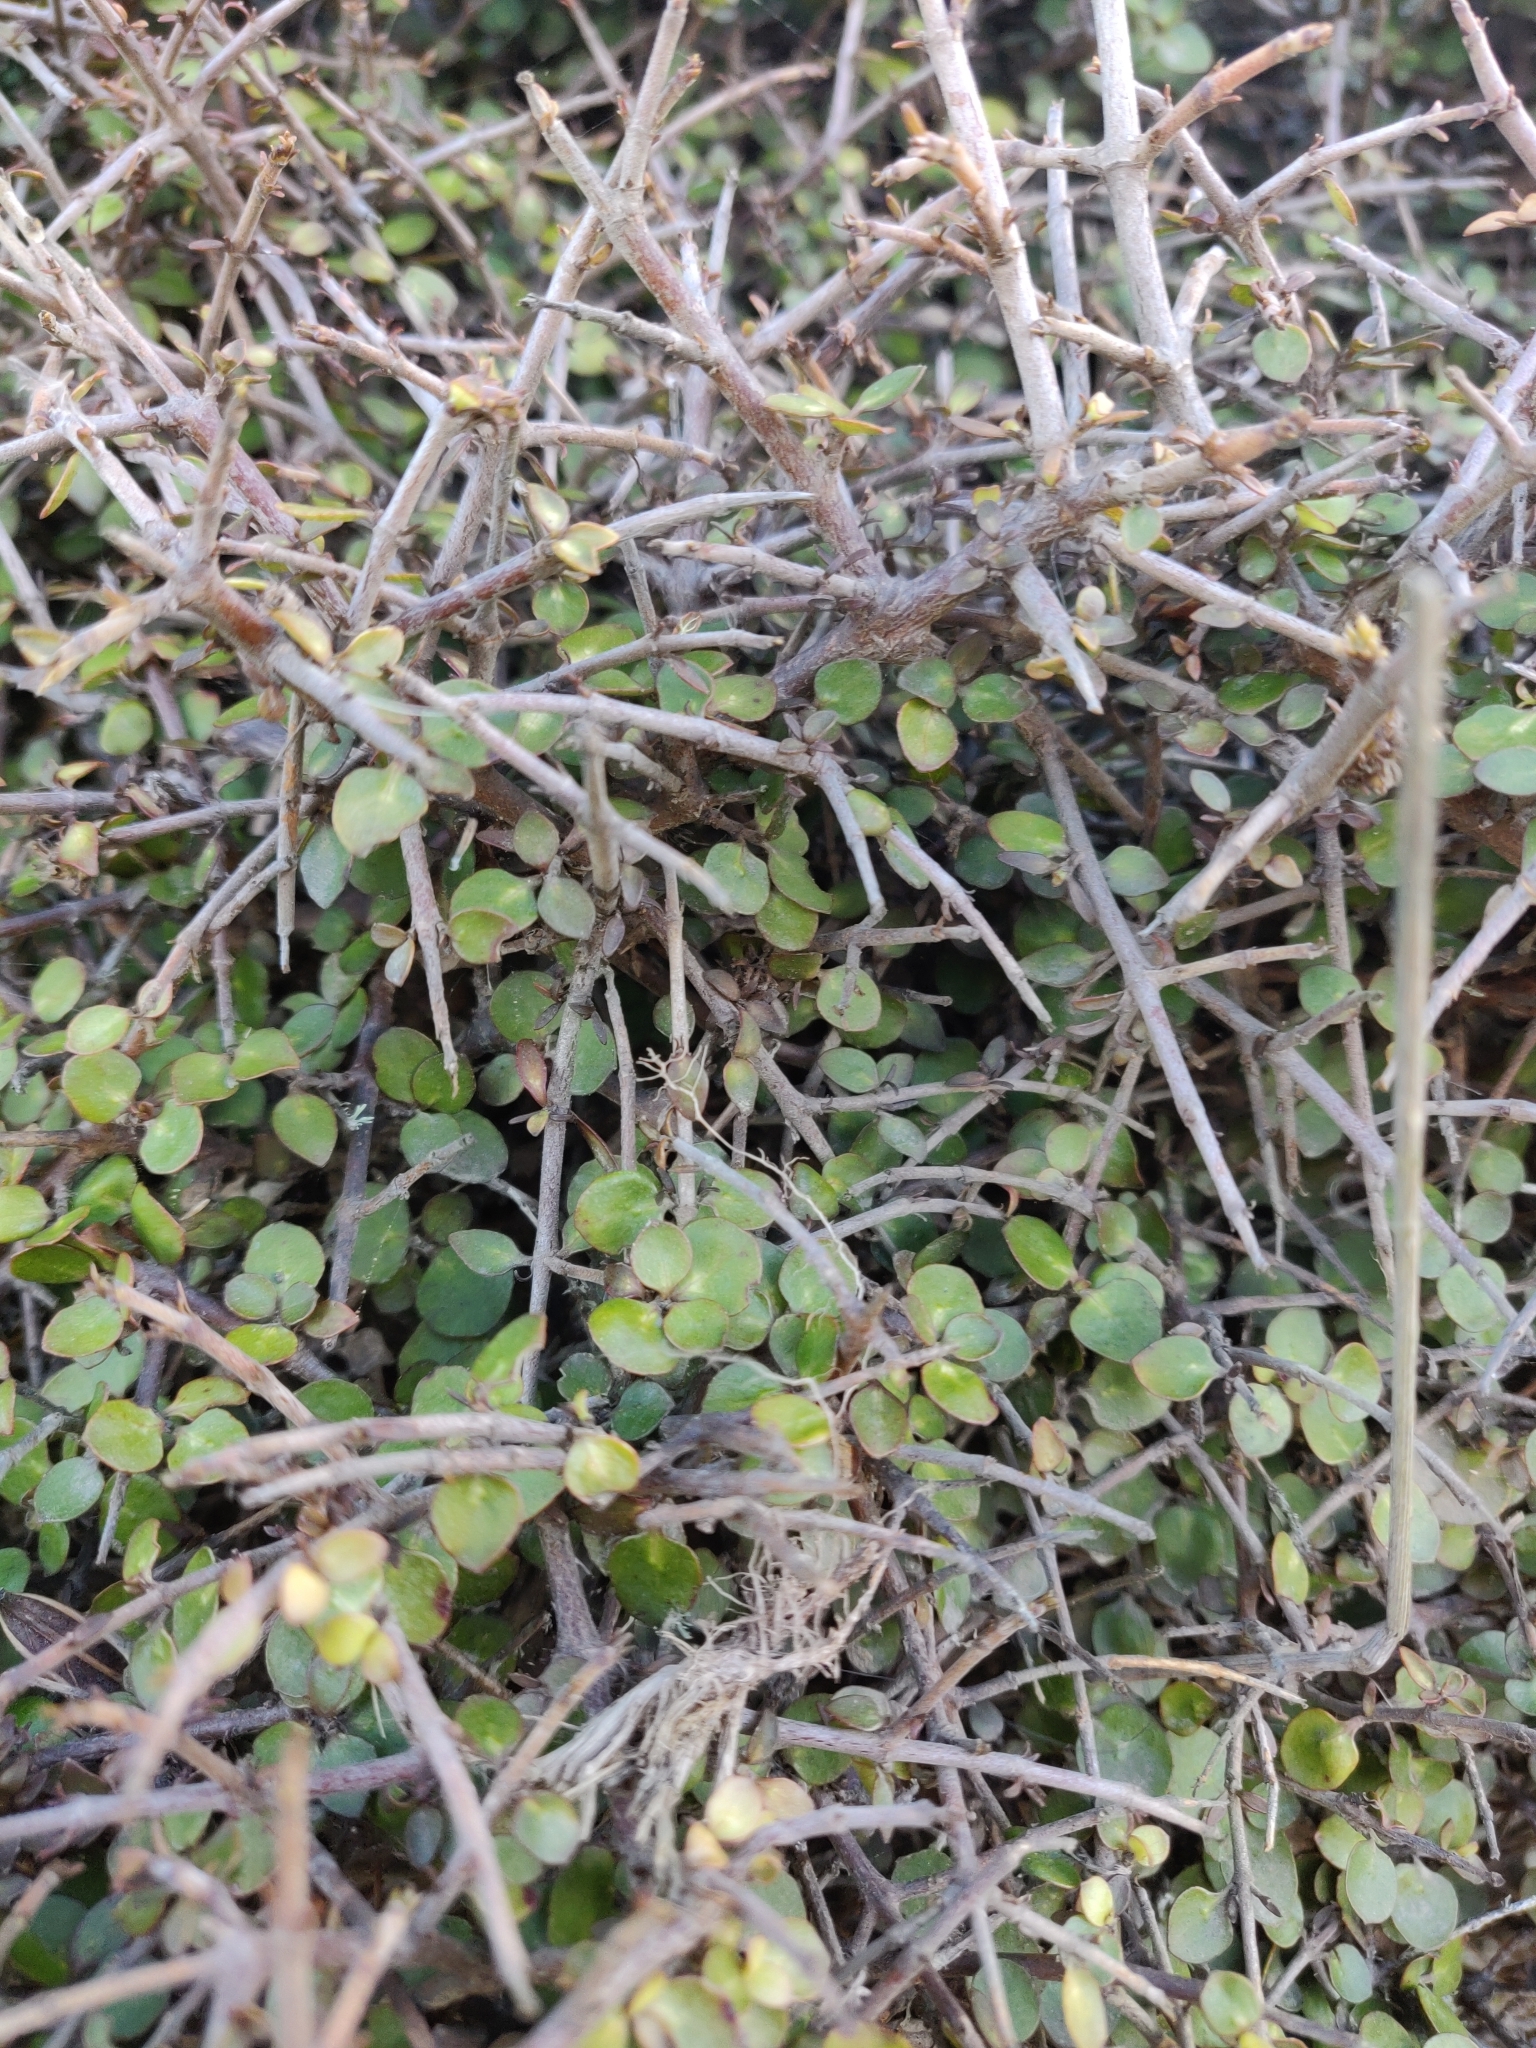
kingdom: Plantae
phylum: Tracheophyta
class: Magnoliopsida
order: Gentianales
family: Rubiaceae
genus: Coprosma
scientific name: Coprosma rhamnoides
